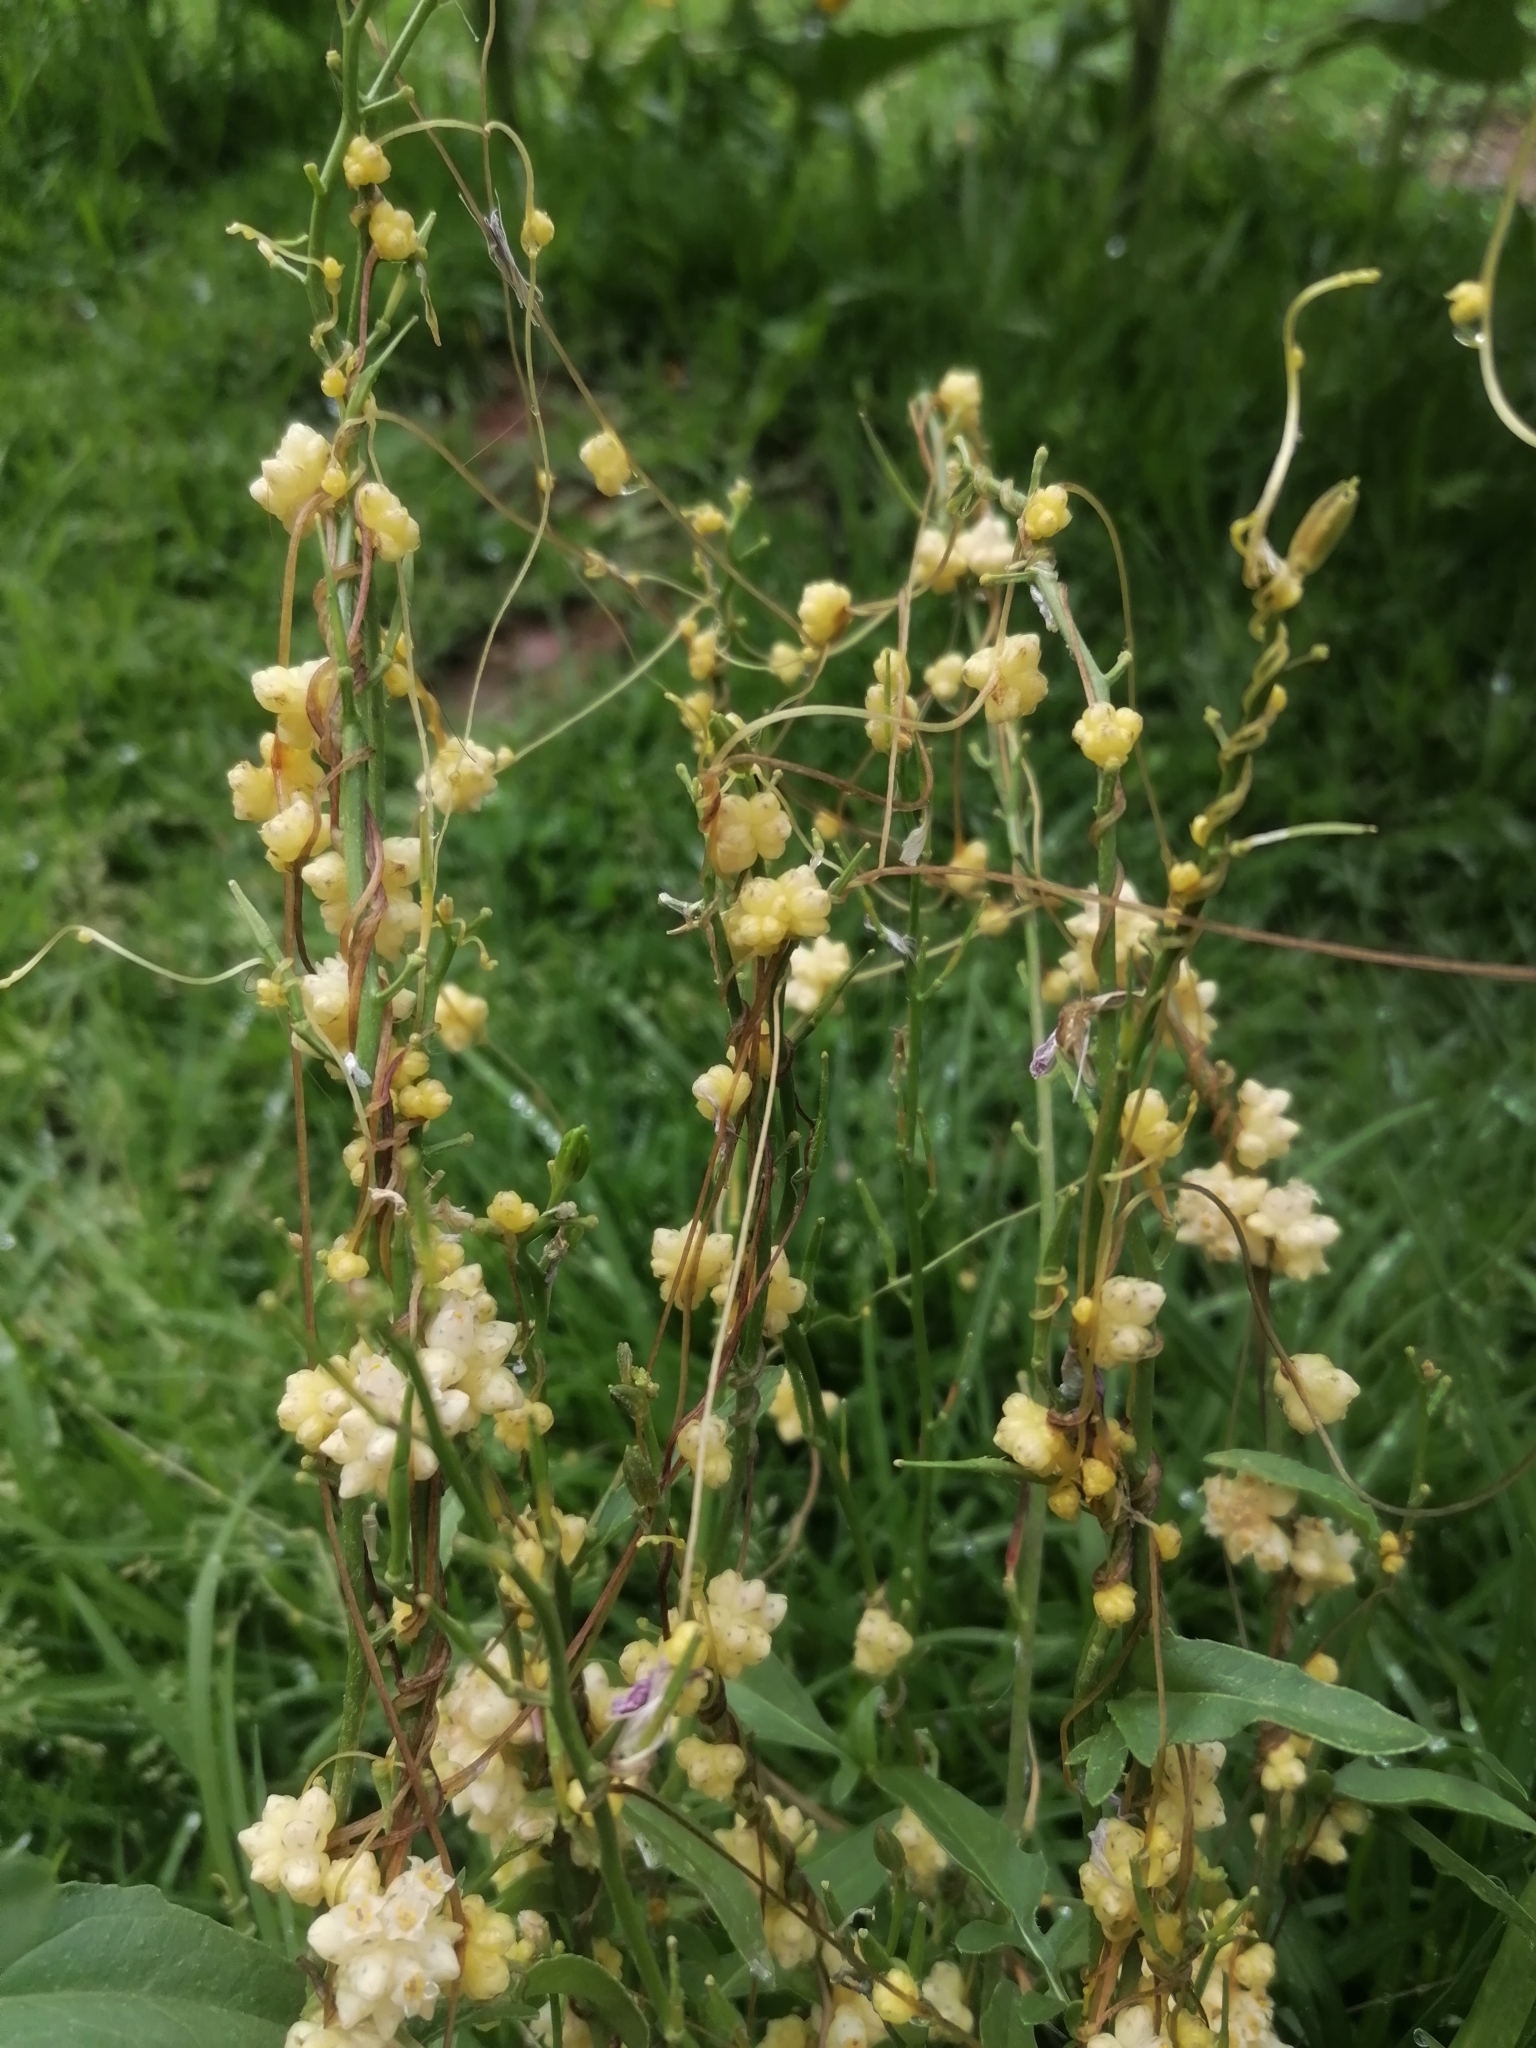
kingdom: Plantae
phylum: Tracheophyta
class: Magnoliopsida
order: Solanales
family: Convolvulaceae
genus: Cuscuta
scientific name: Cuscuta campestris
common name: Yellow dodder
